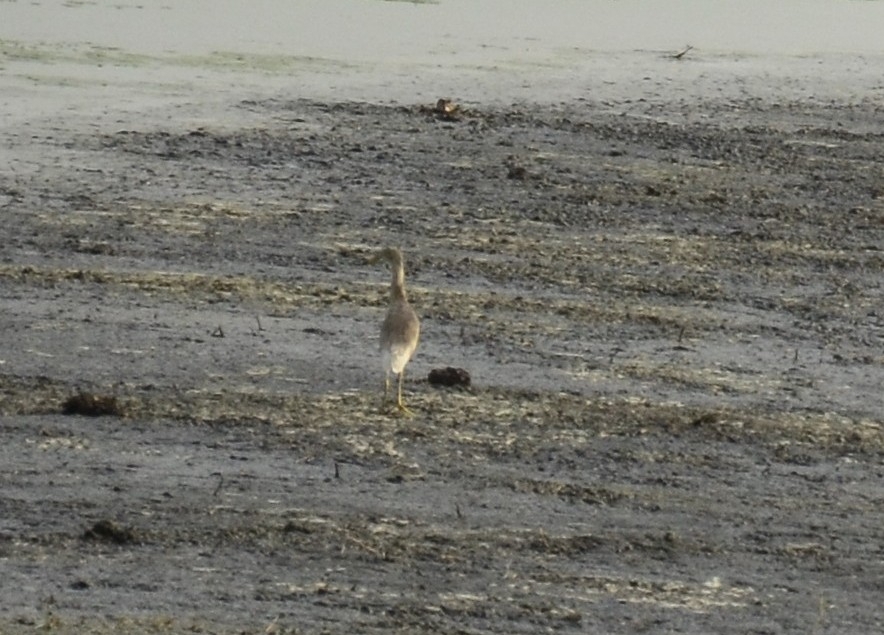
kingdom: Animalia
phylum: Chordata
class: Aves
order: Pelecaniformes
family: Ardeidae
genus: Ardeola
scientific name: Ardeola grayii
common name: Indian pond heron
